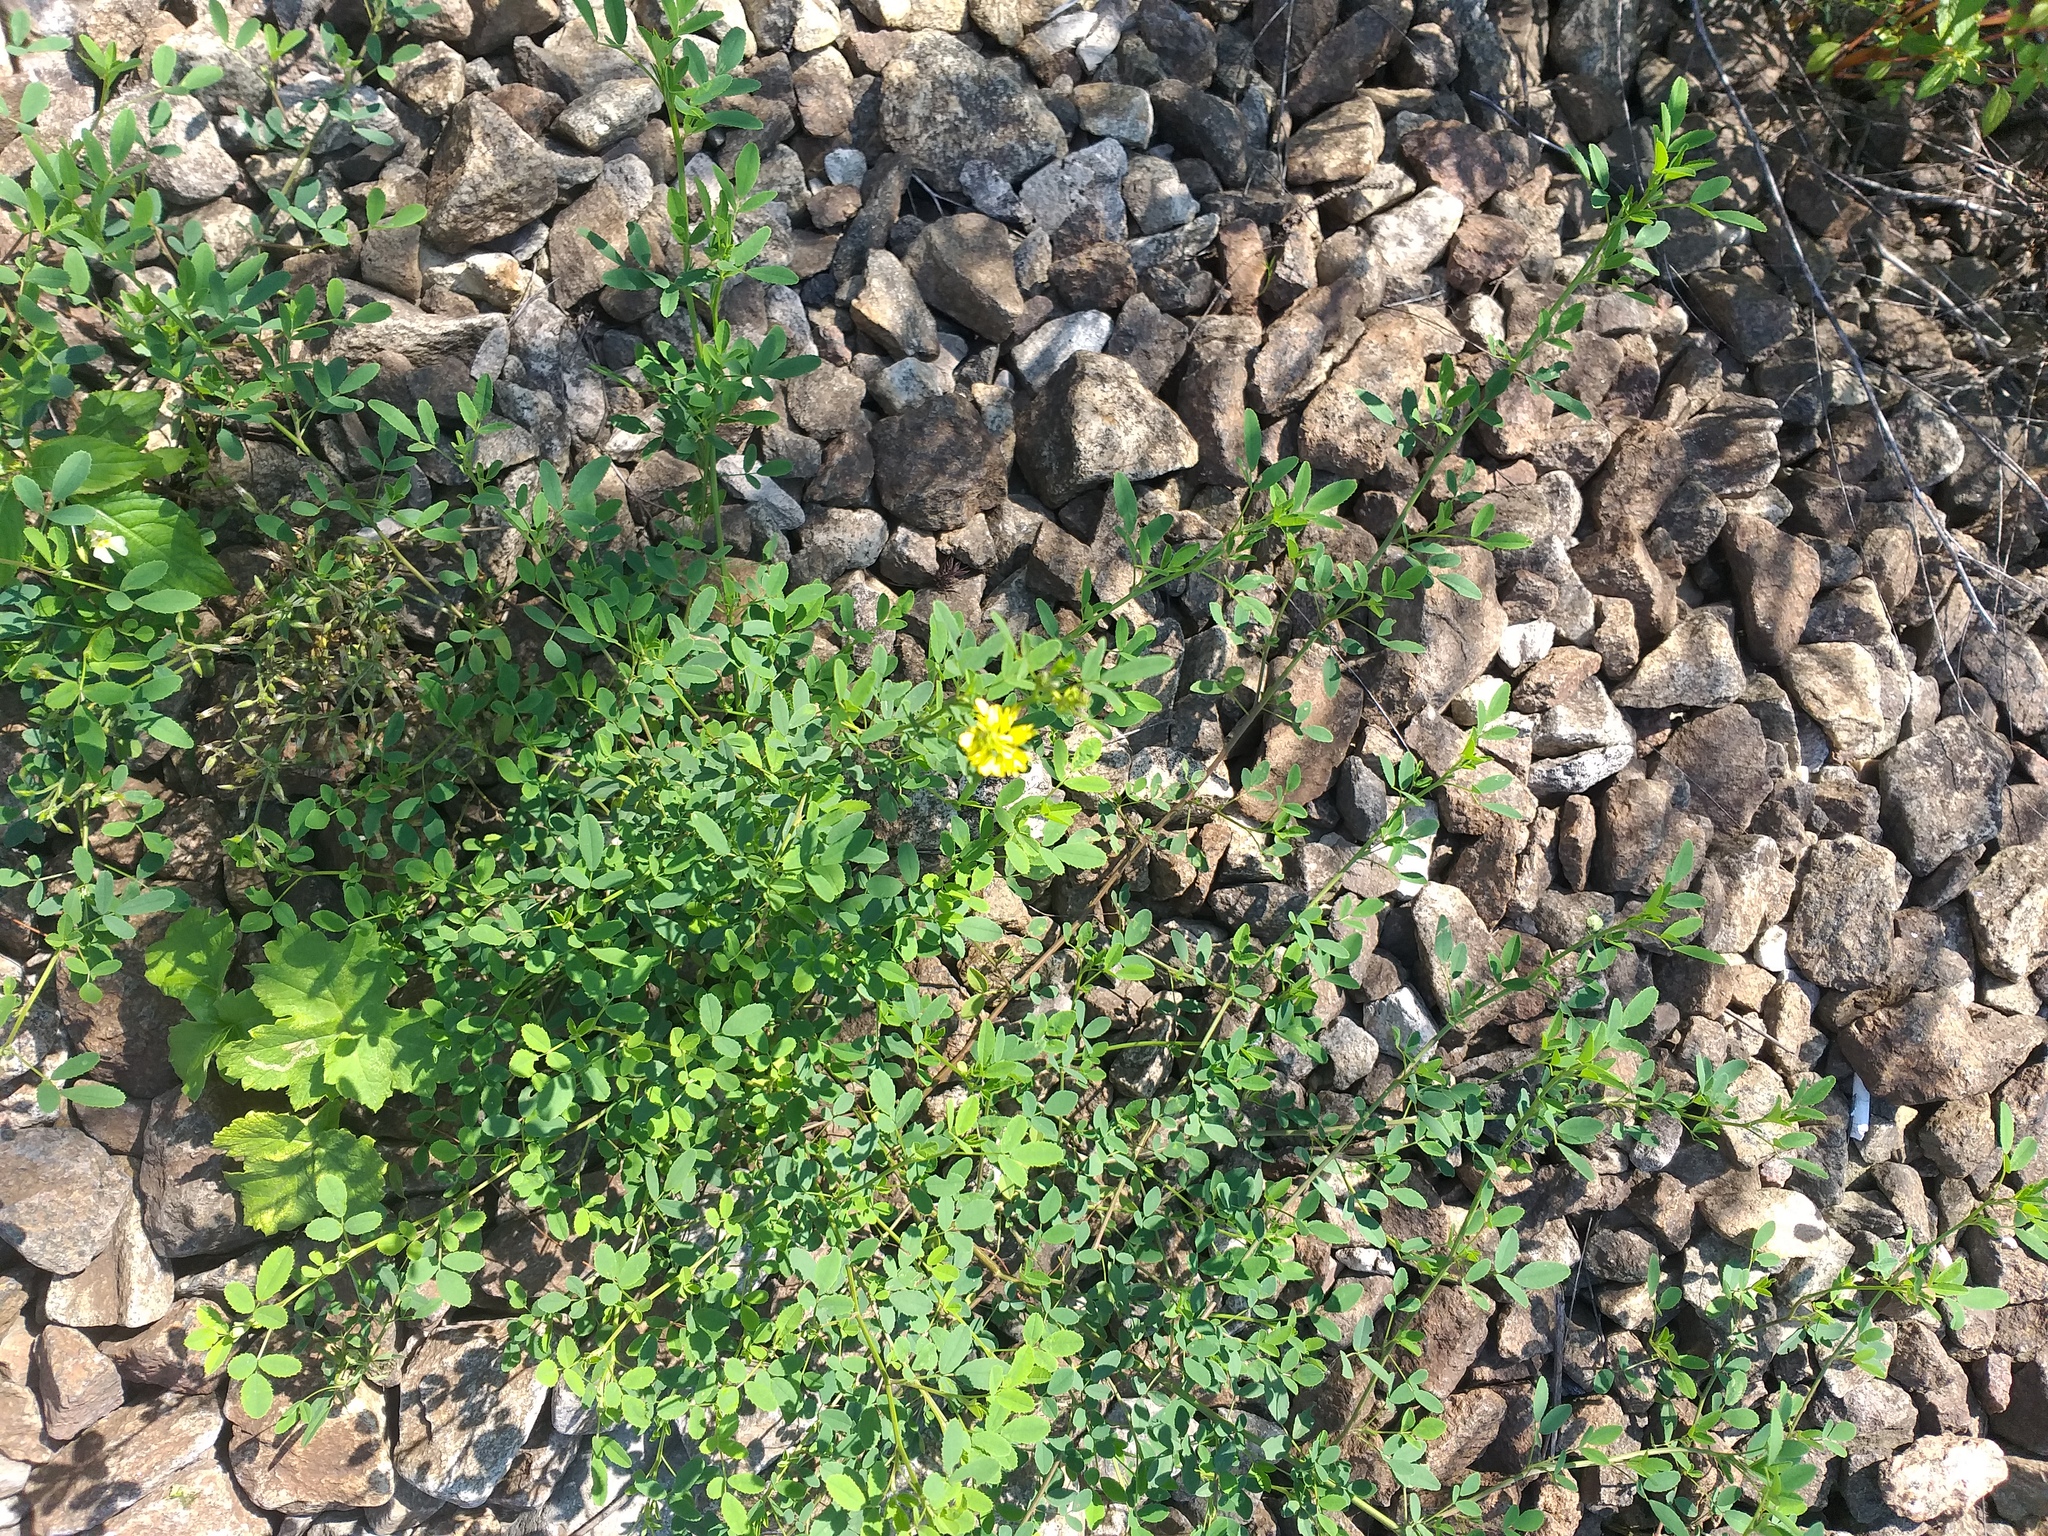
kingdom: Plantae
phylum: Tracheophyta
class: Magnoliopsida
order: Fabales
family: Fabaceae
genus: Melilotus
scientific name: Melilotus officinalis
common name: Sweetclover
